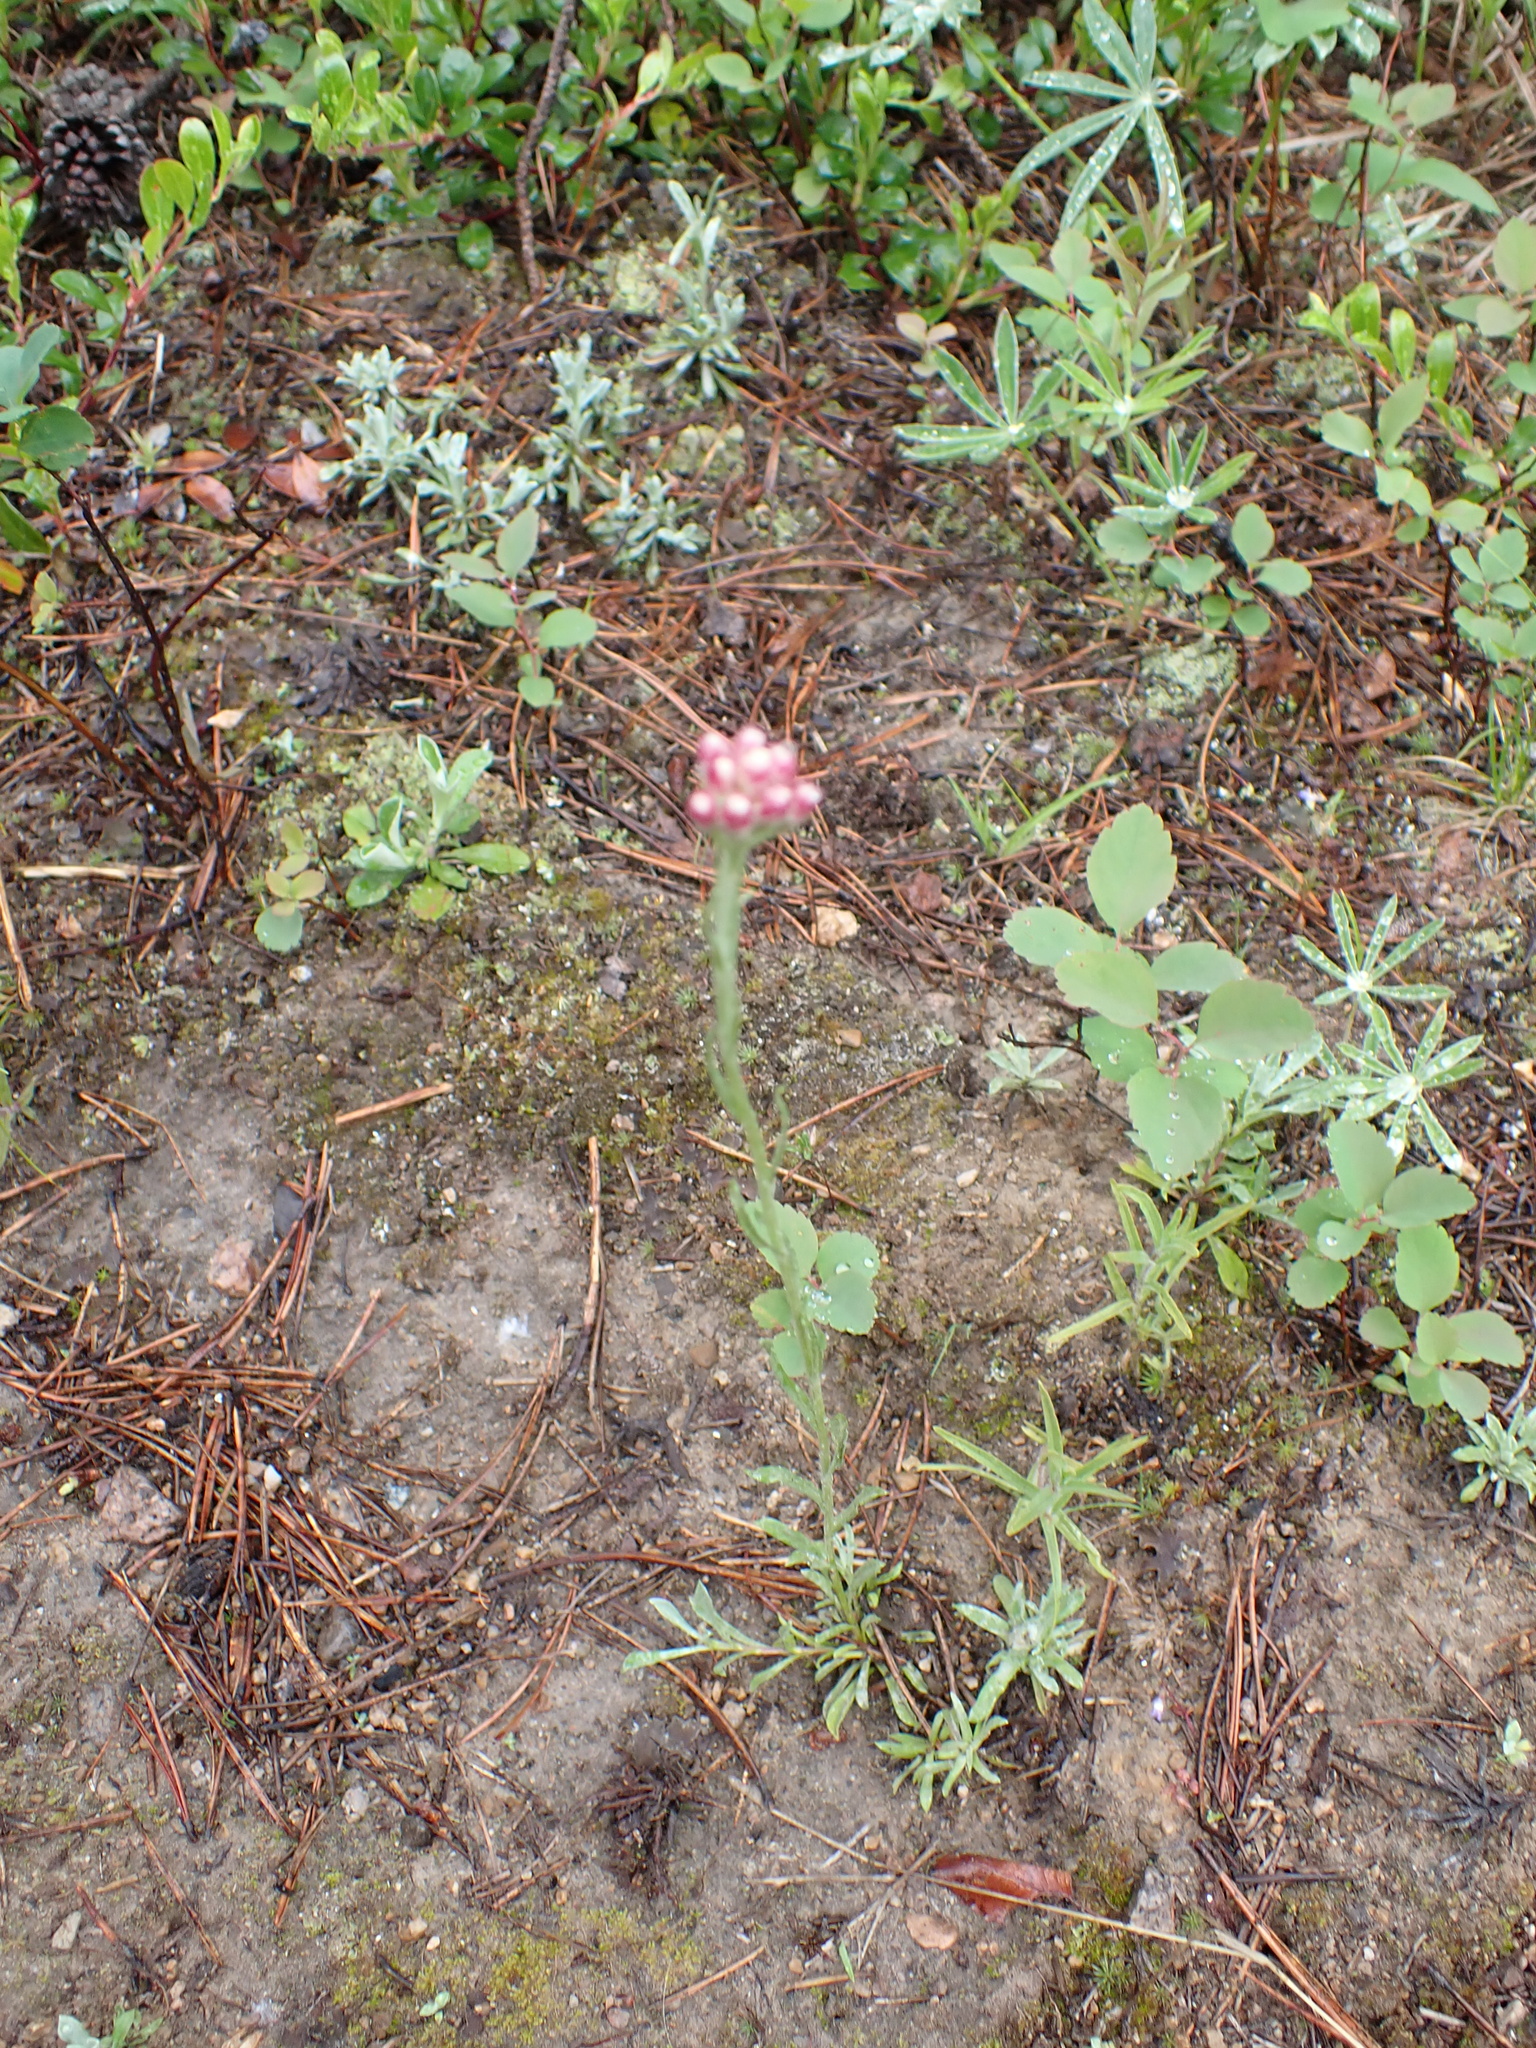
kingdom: Plantae
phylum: Tracheophyta
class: Magnoliopsida
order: Asterales
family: Asteraceae
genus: Antennaria
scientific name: Antennaria rosea
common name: Rosy pussytoes
